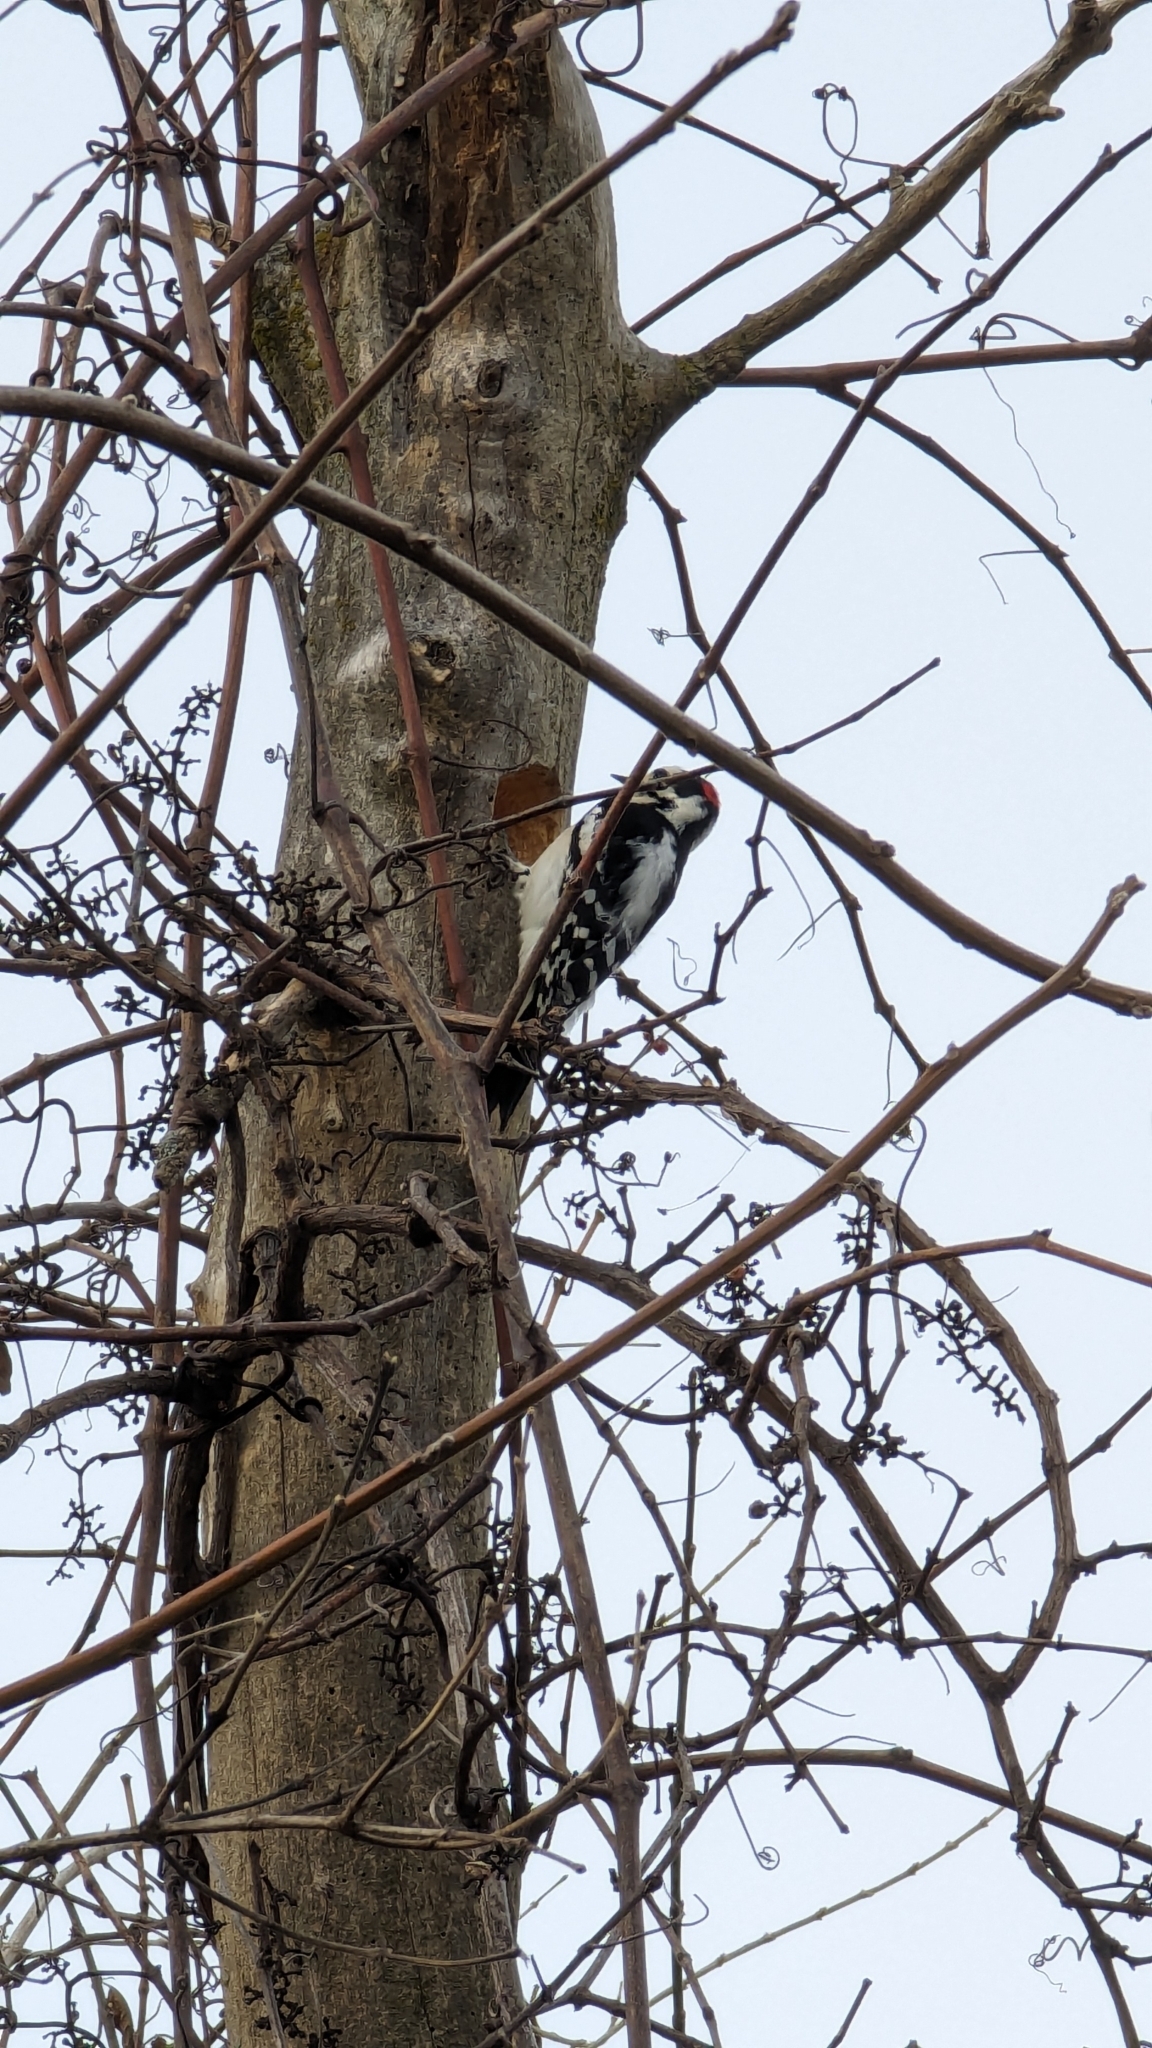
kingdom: Animalia
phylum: Chordata
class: Aves
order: Piciformes
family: Picidae
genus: Dryobates
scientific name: Dryobates pubescens
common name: Downy woodpecker
